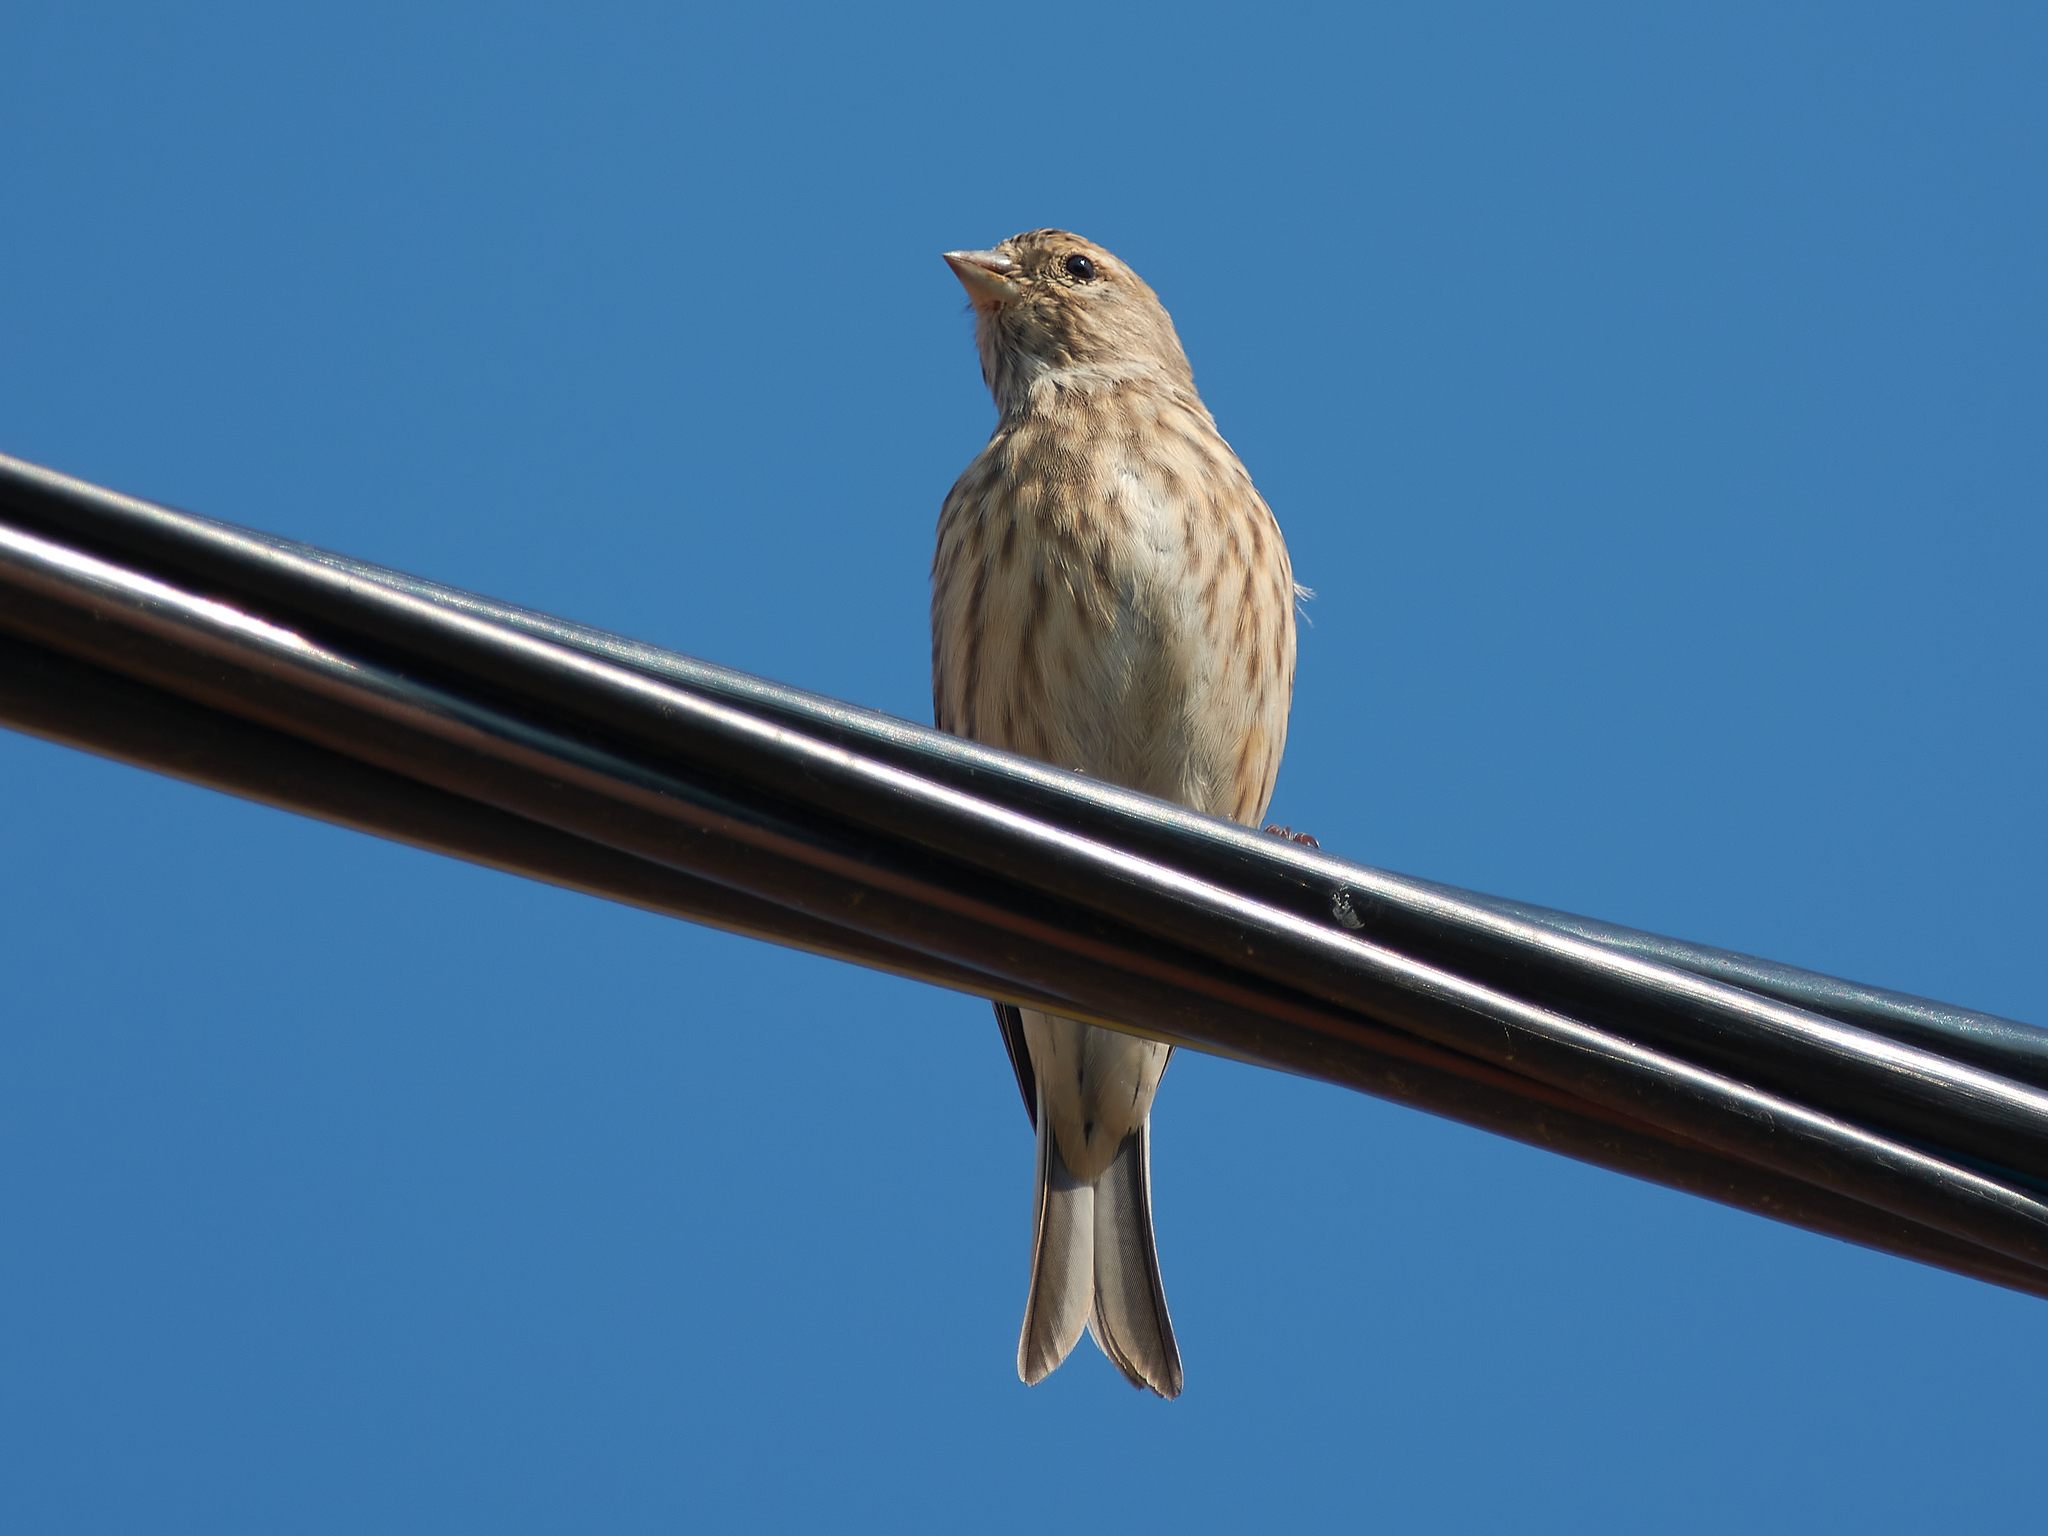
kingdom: Animalia
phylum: Chordata
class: Aves
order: Passeriformes
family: Fringillidae
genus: Linaria
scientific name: Linaria cannabina
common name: Common linnet
